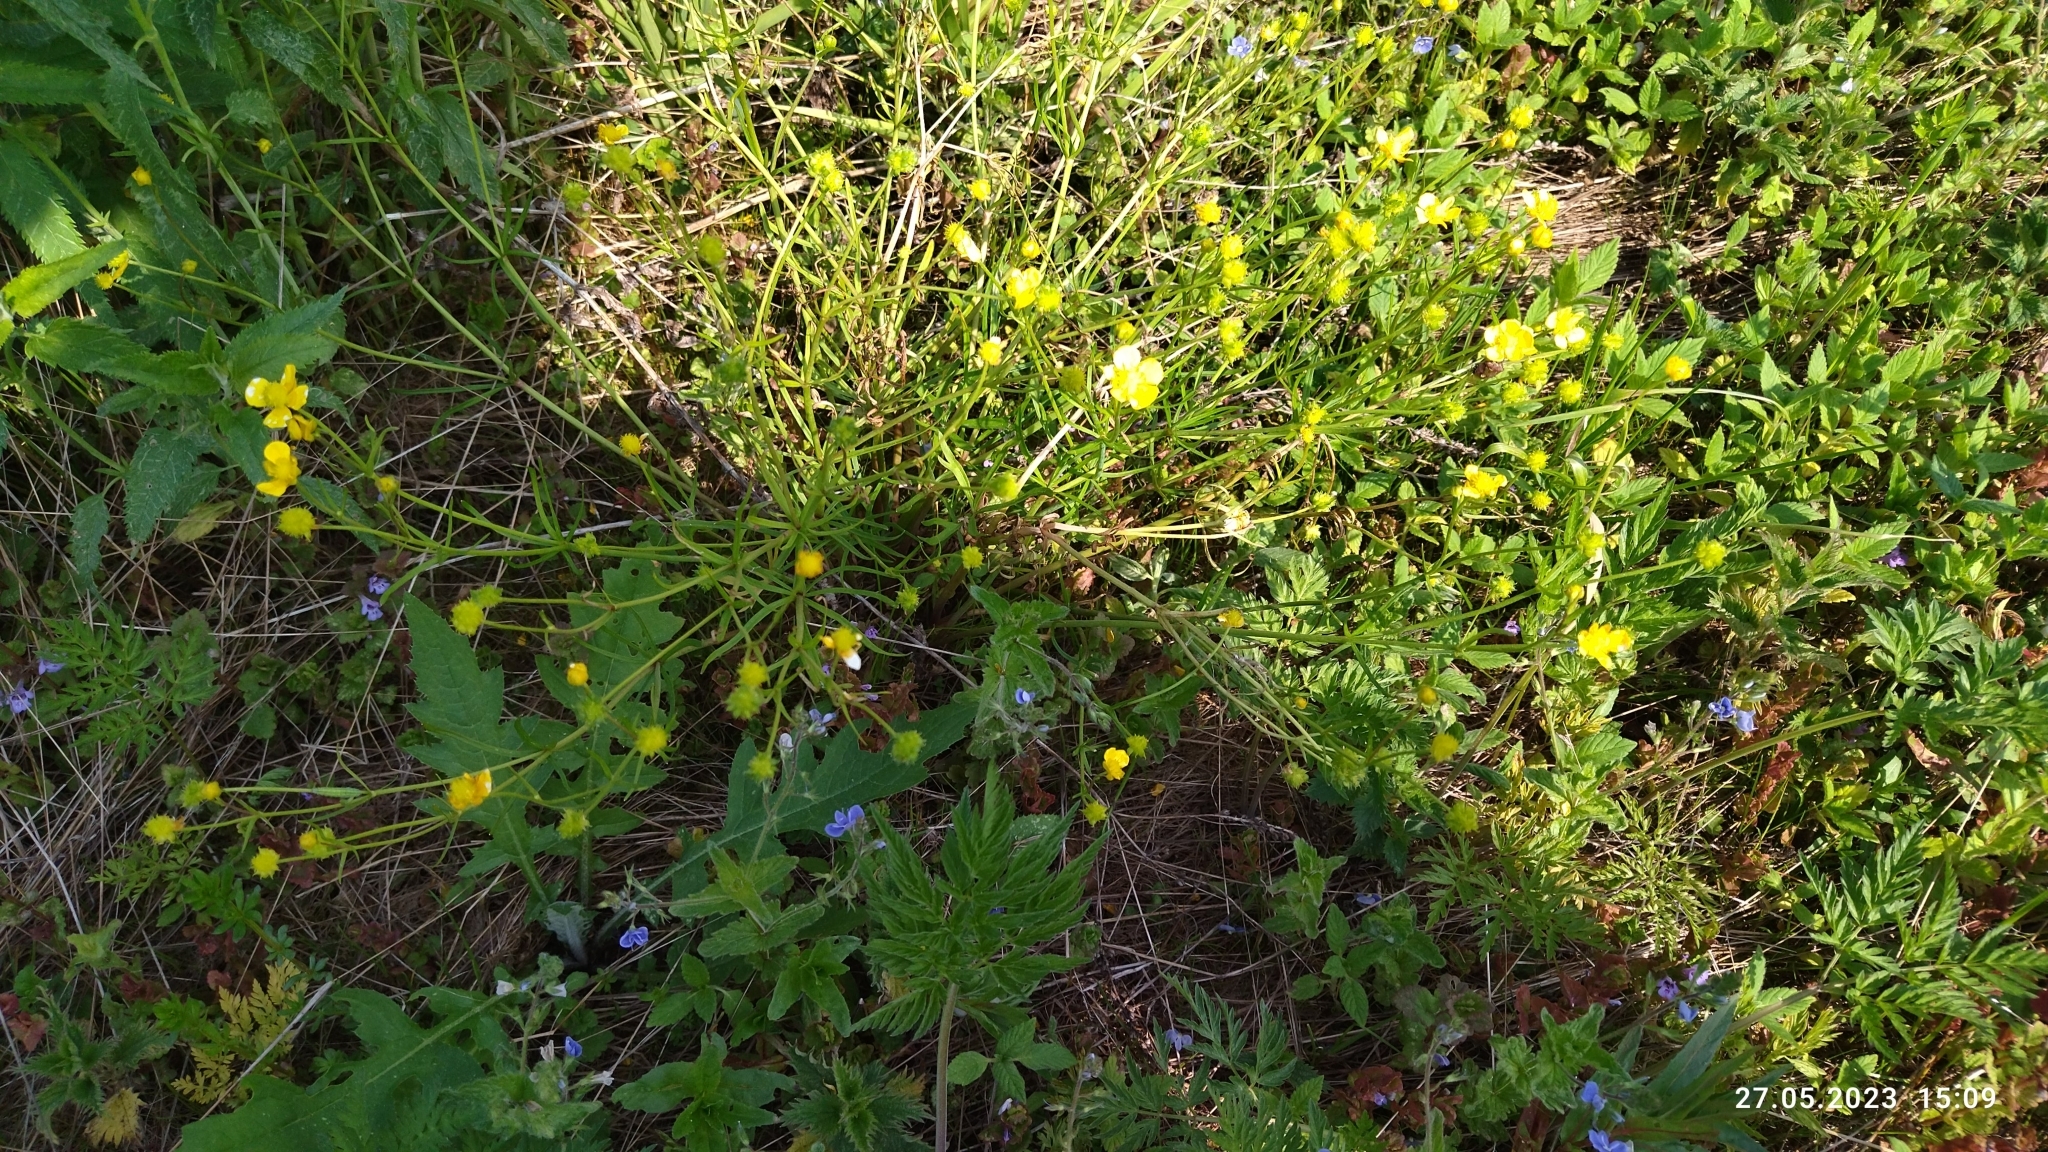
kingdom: Plantae
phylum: Tracheophyta
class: Magnoliopsida
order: Ranunculales
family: Ranunculaceae
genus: Ranunculus
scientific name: Ranunculus auricomus
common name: Goldilocks buttercup
